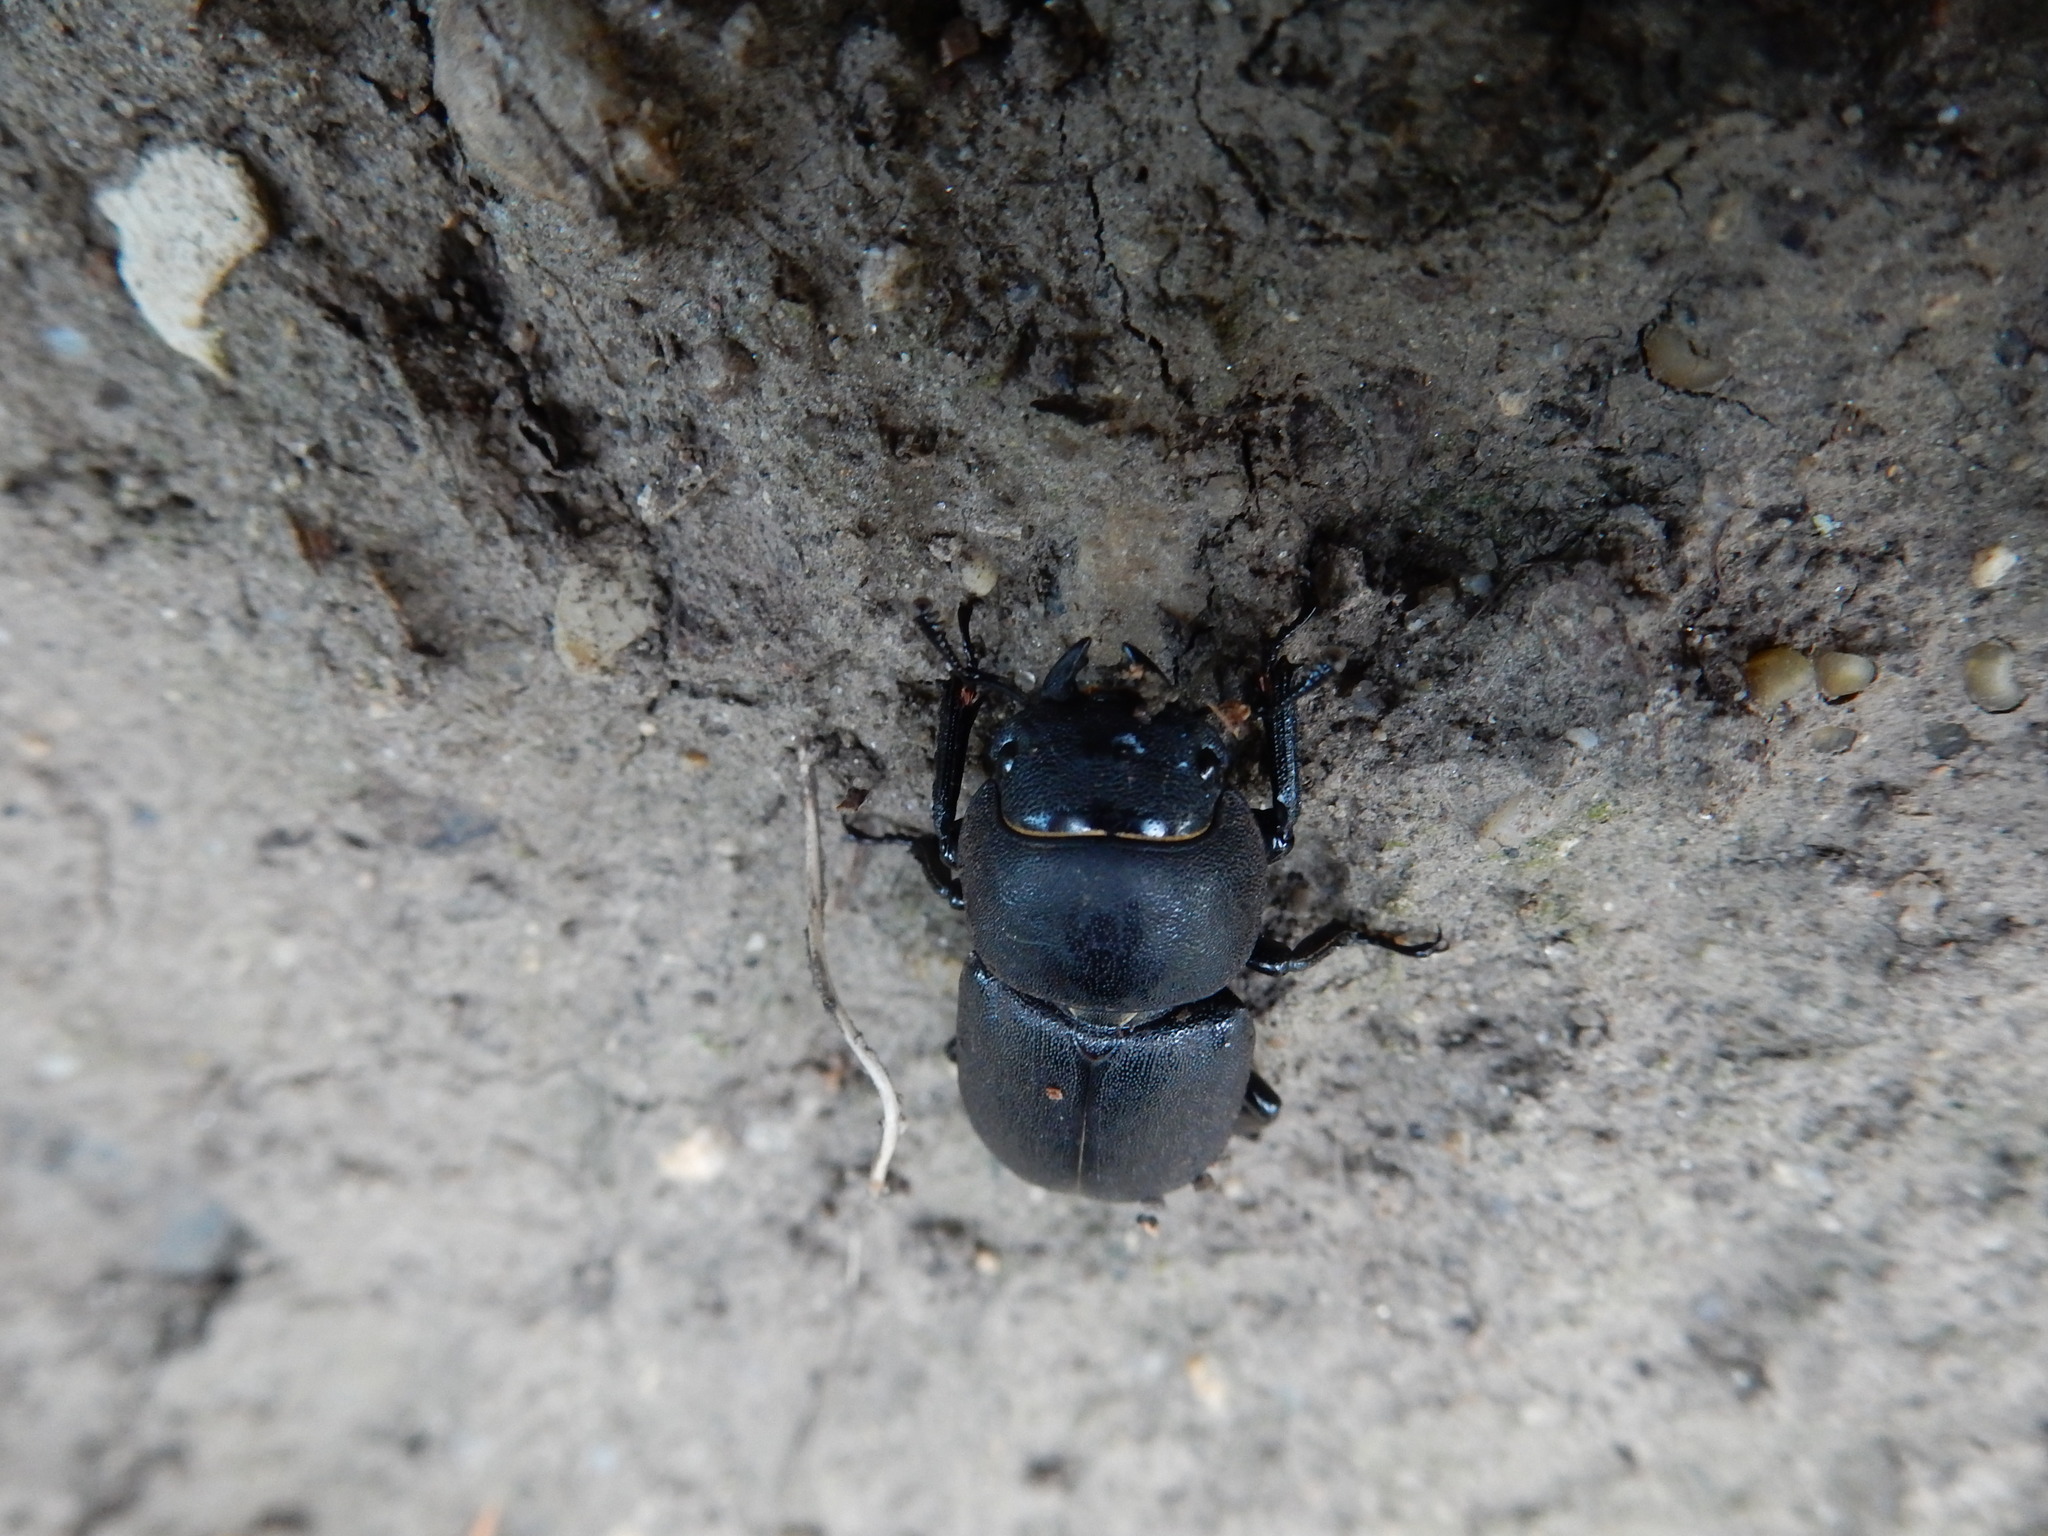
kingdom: Animalia
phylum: Arthropoda
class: Insecta
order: Coleoptera
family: Lucanidae
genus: Dorcus
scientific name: Dorcus parallelipipedus
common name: Lesser stag beetle
